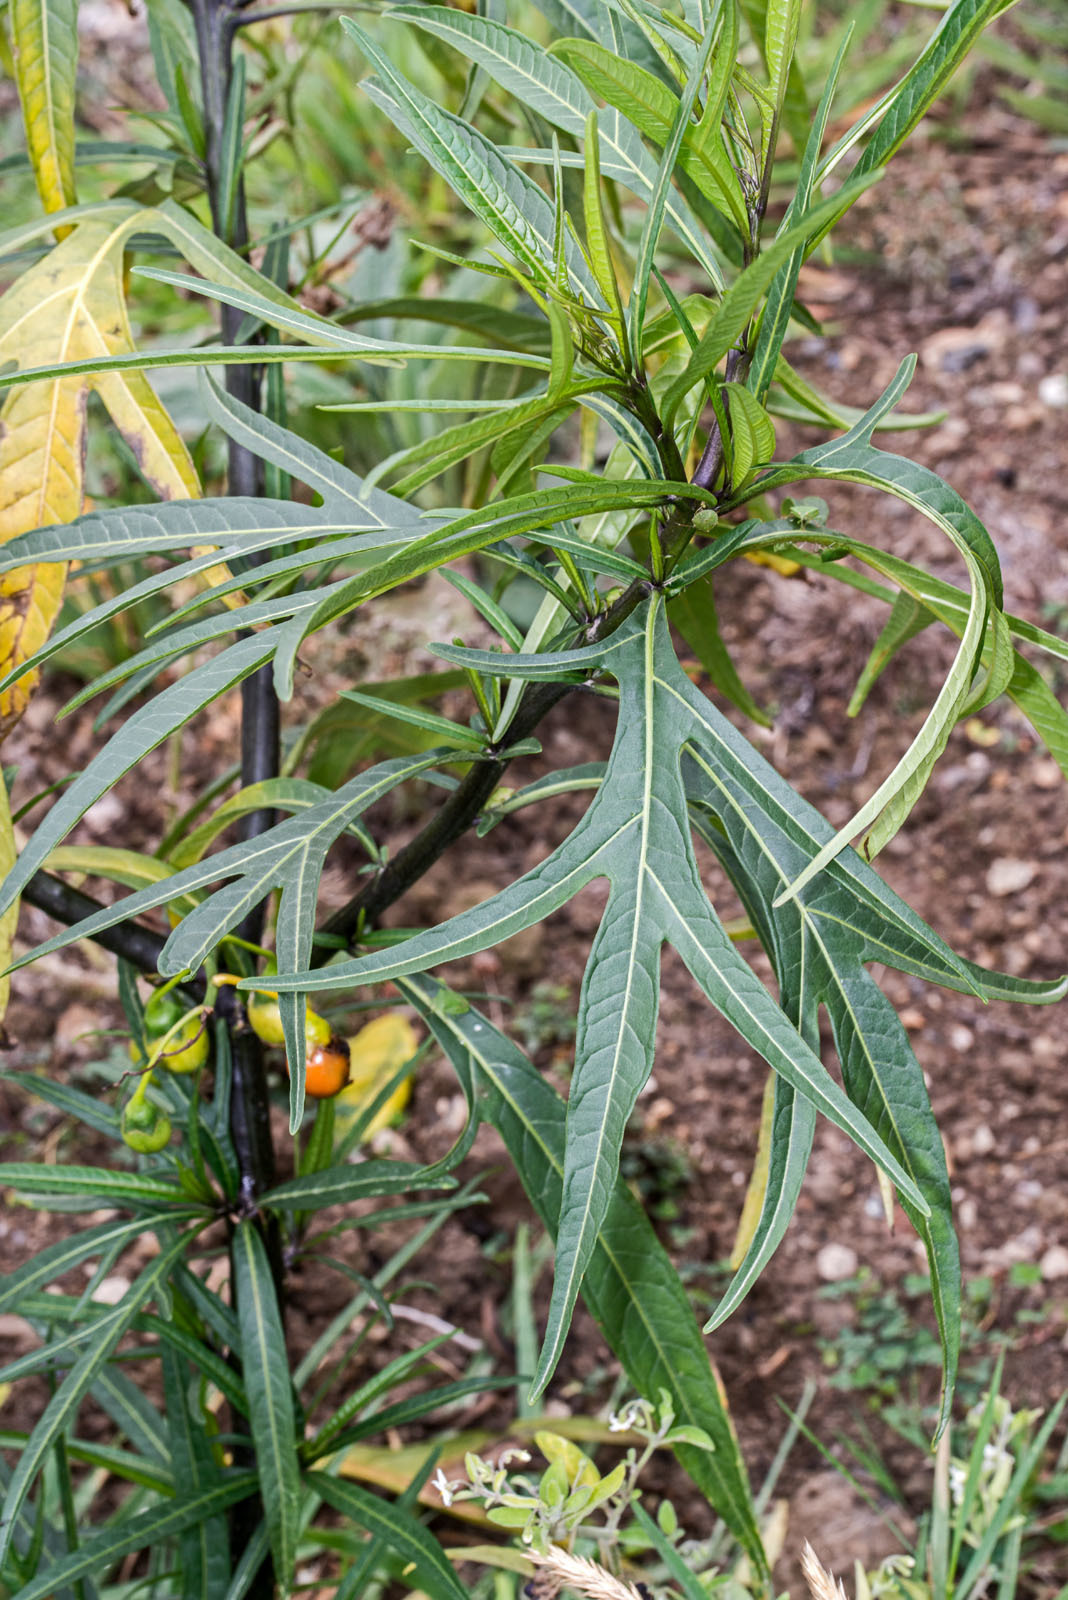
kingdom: Plantae
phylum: Tracheophyta
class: Magnoliopsida
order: Solanales
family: Solanaceae
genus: Solanum
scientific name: Solanum laciniatum
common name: Kangaroo-apple
